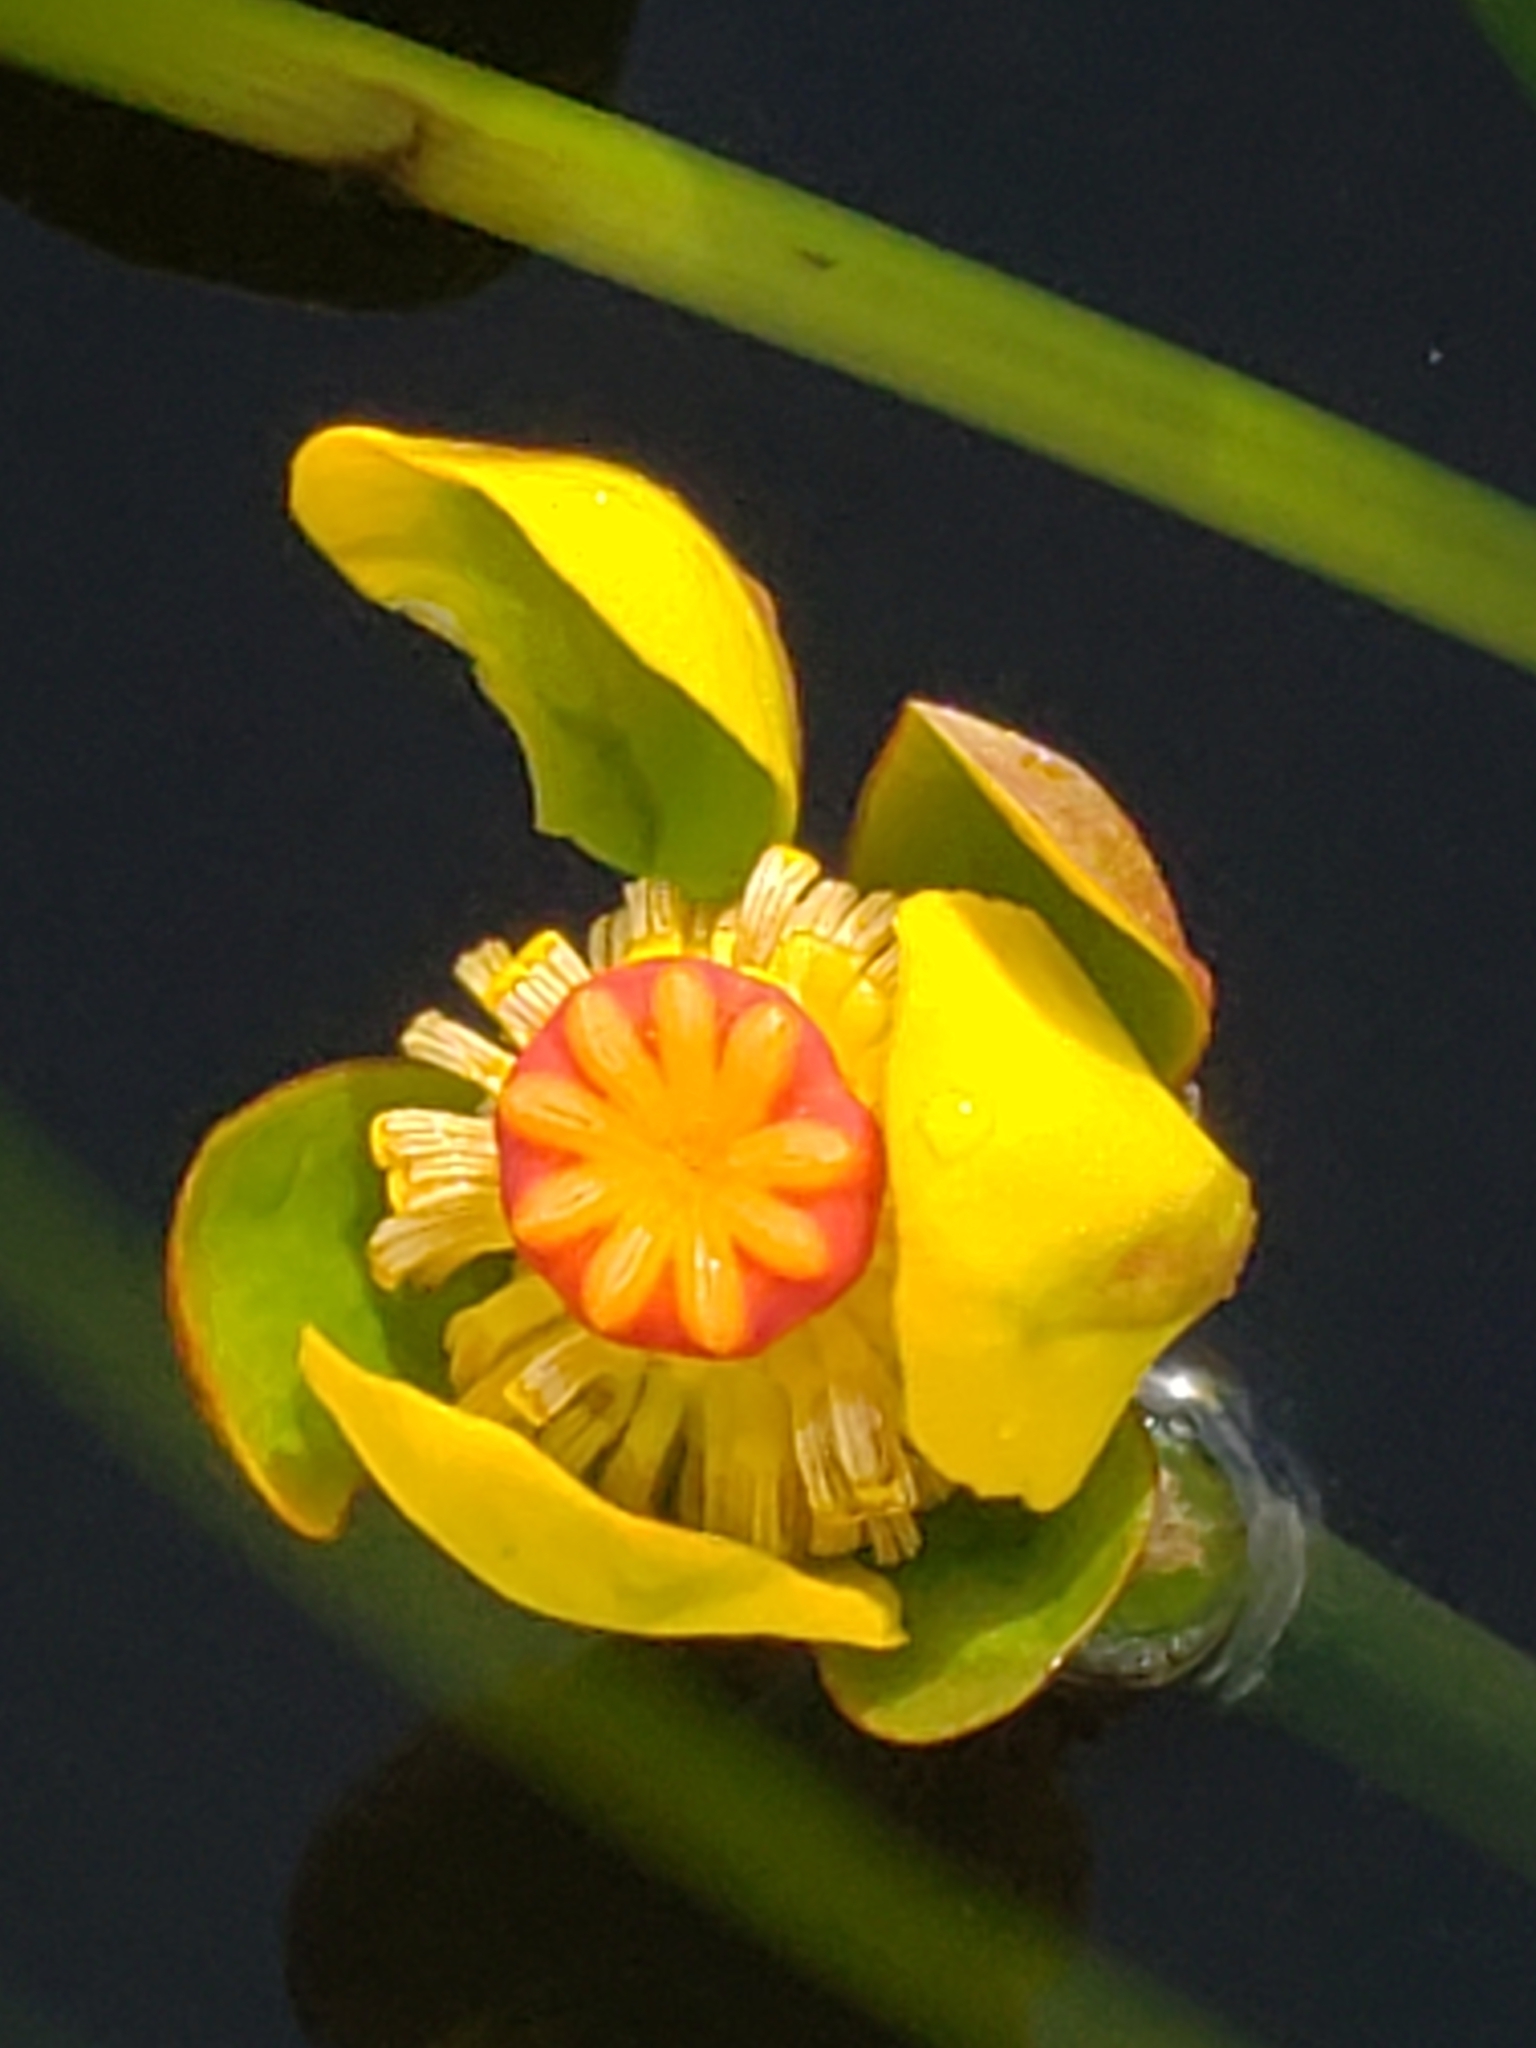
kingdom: Plantae
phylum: Tracheophyta
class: Magnoliopsida
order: Nymphaeales
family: Nymphaeaceae
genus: Nuphar
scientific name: Nuphar advena
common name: Spatter-dock
